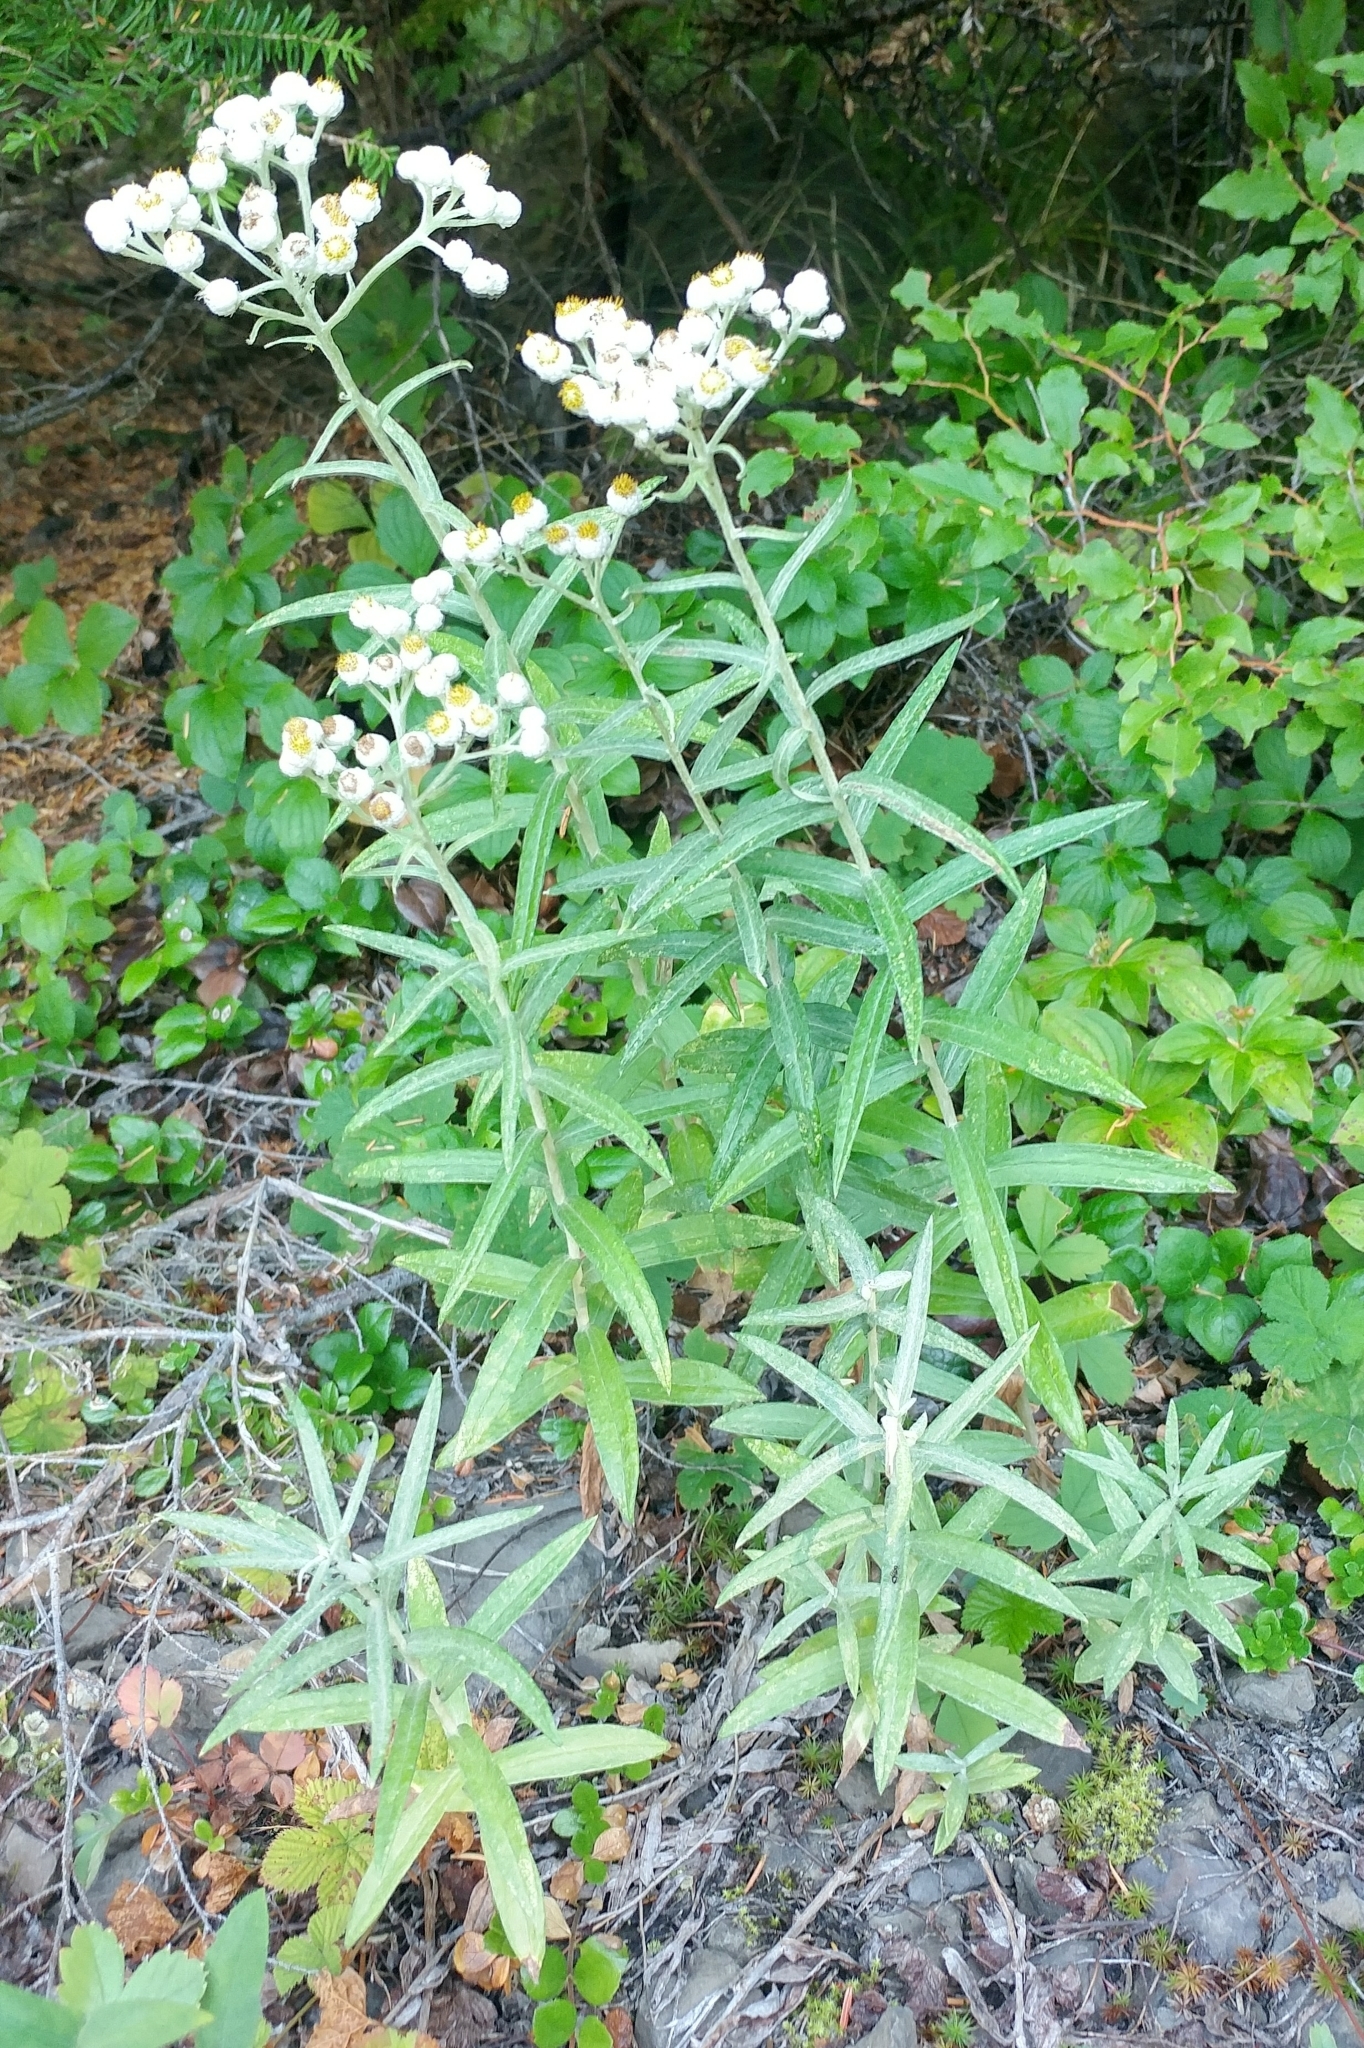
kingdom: Plantae
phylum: Tracheophyta
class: Magnoliopsida
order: Asterales
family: Asteraceae
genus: Anaphalis
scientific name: Anaphalis margaritacea
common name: Pearly everlasting
